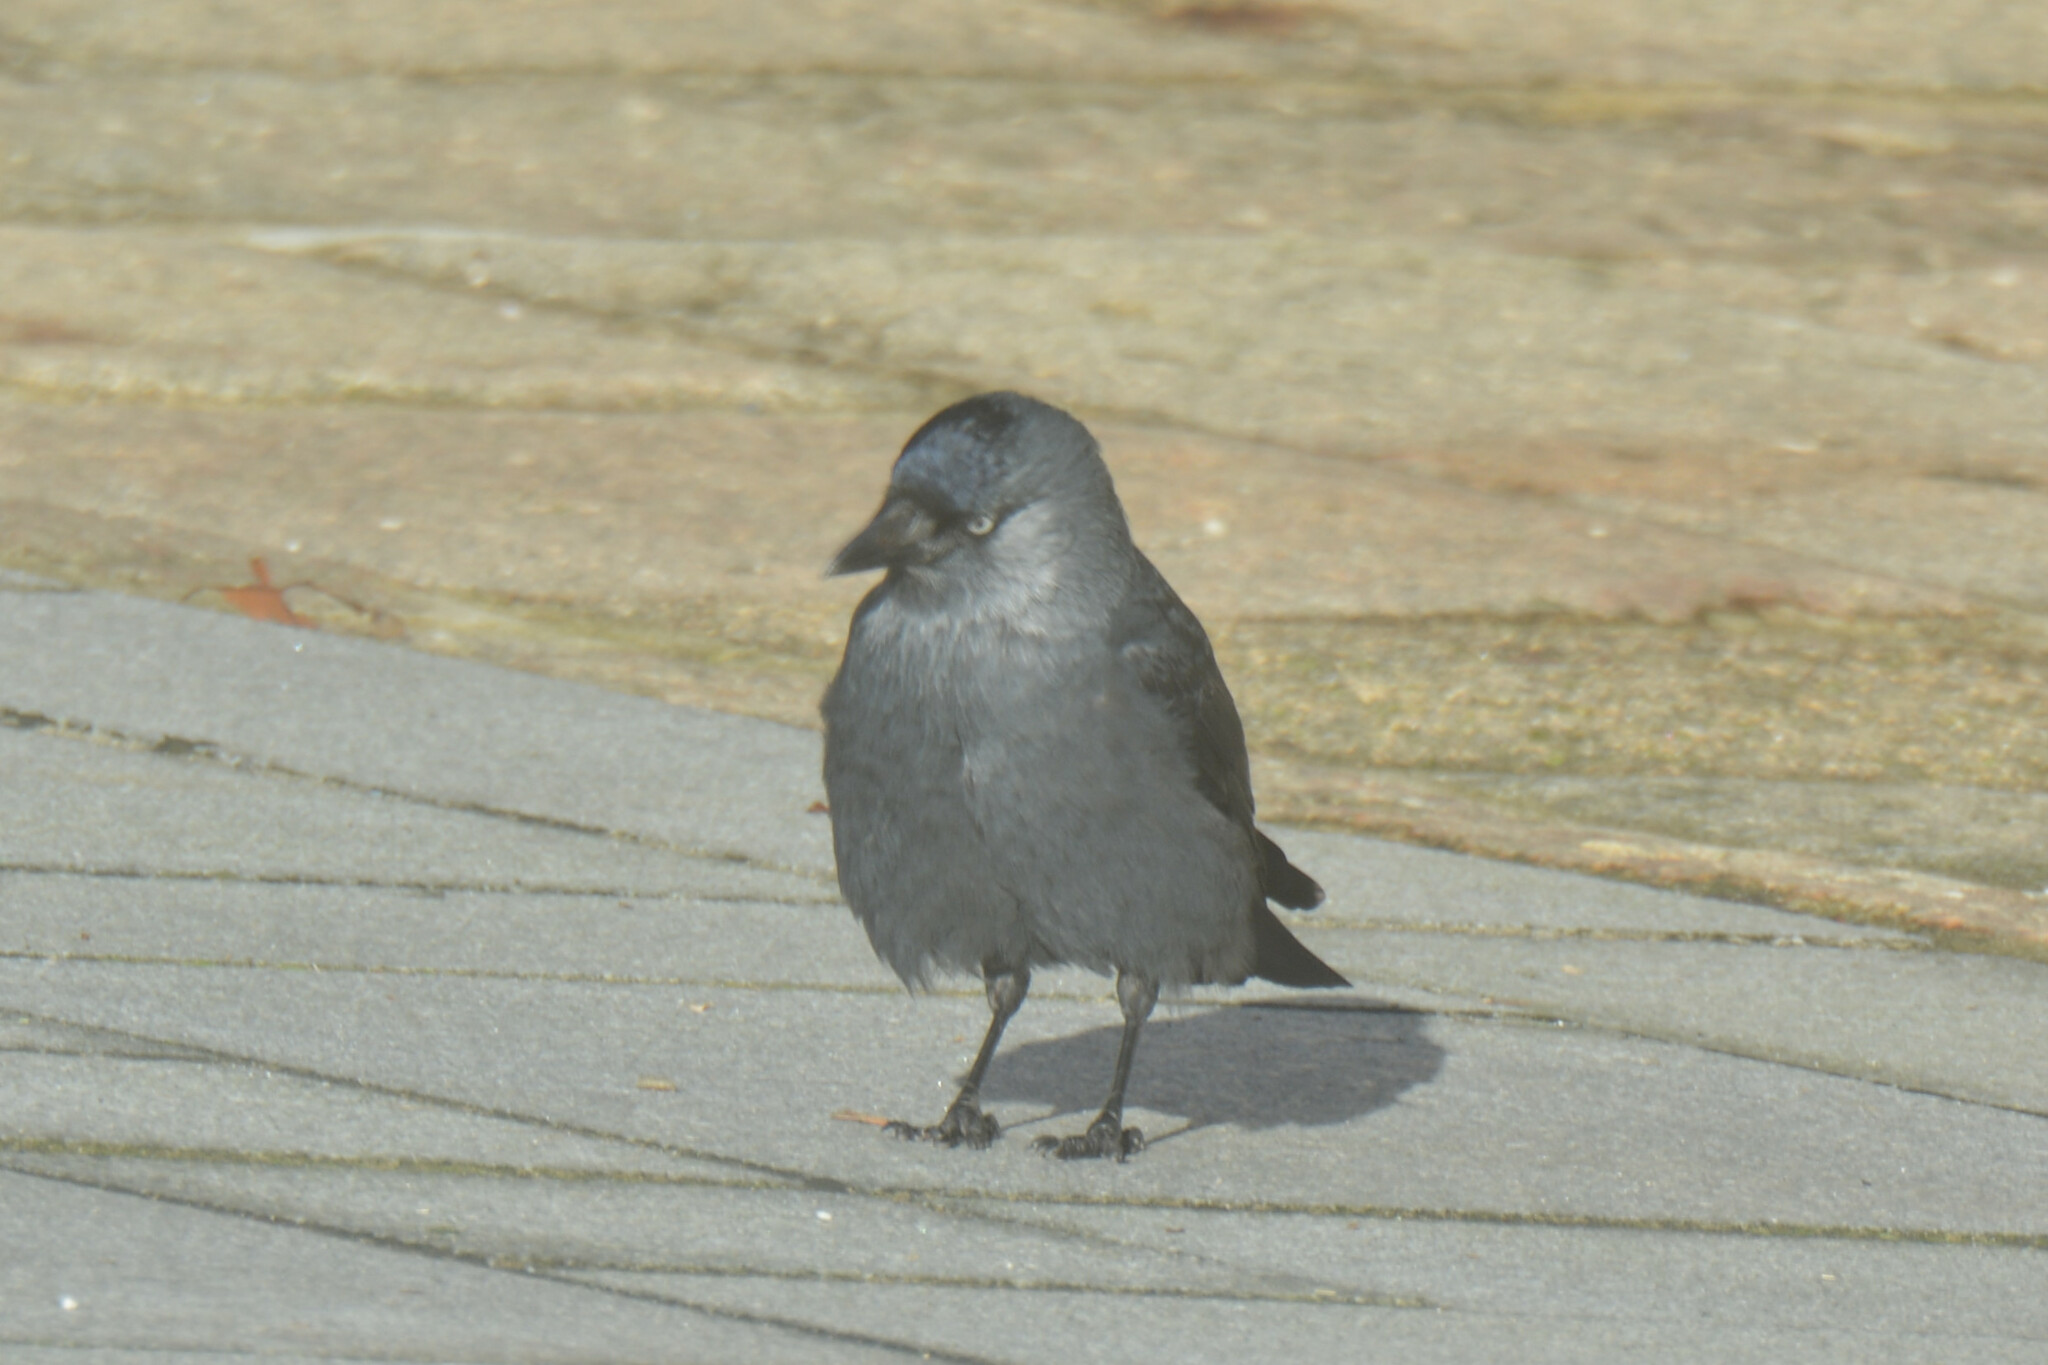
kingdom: Animalia
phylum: Chordata
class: Aves
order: Passeriformes
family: Corvidae
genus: Coloeus
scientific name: Coloeus monedula
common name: Western jackdaw
